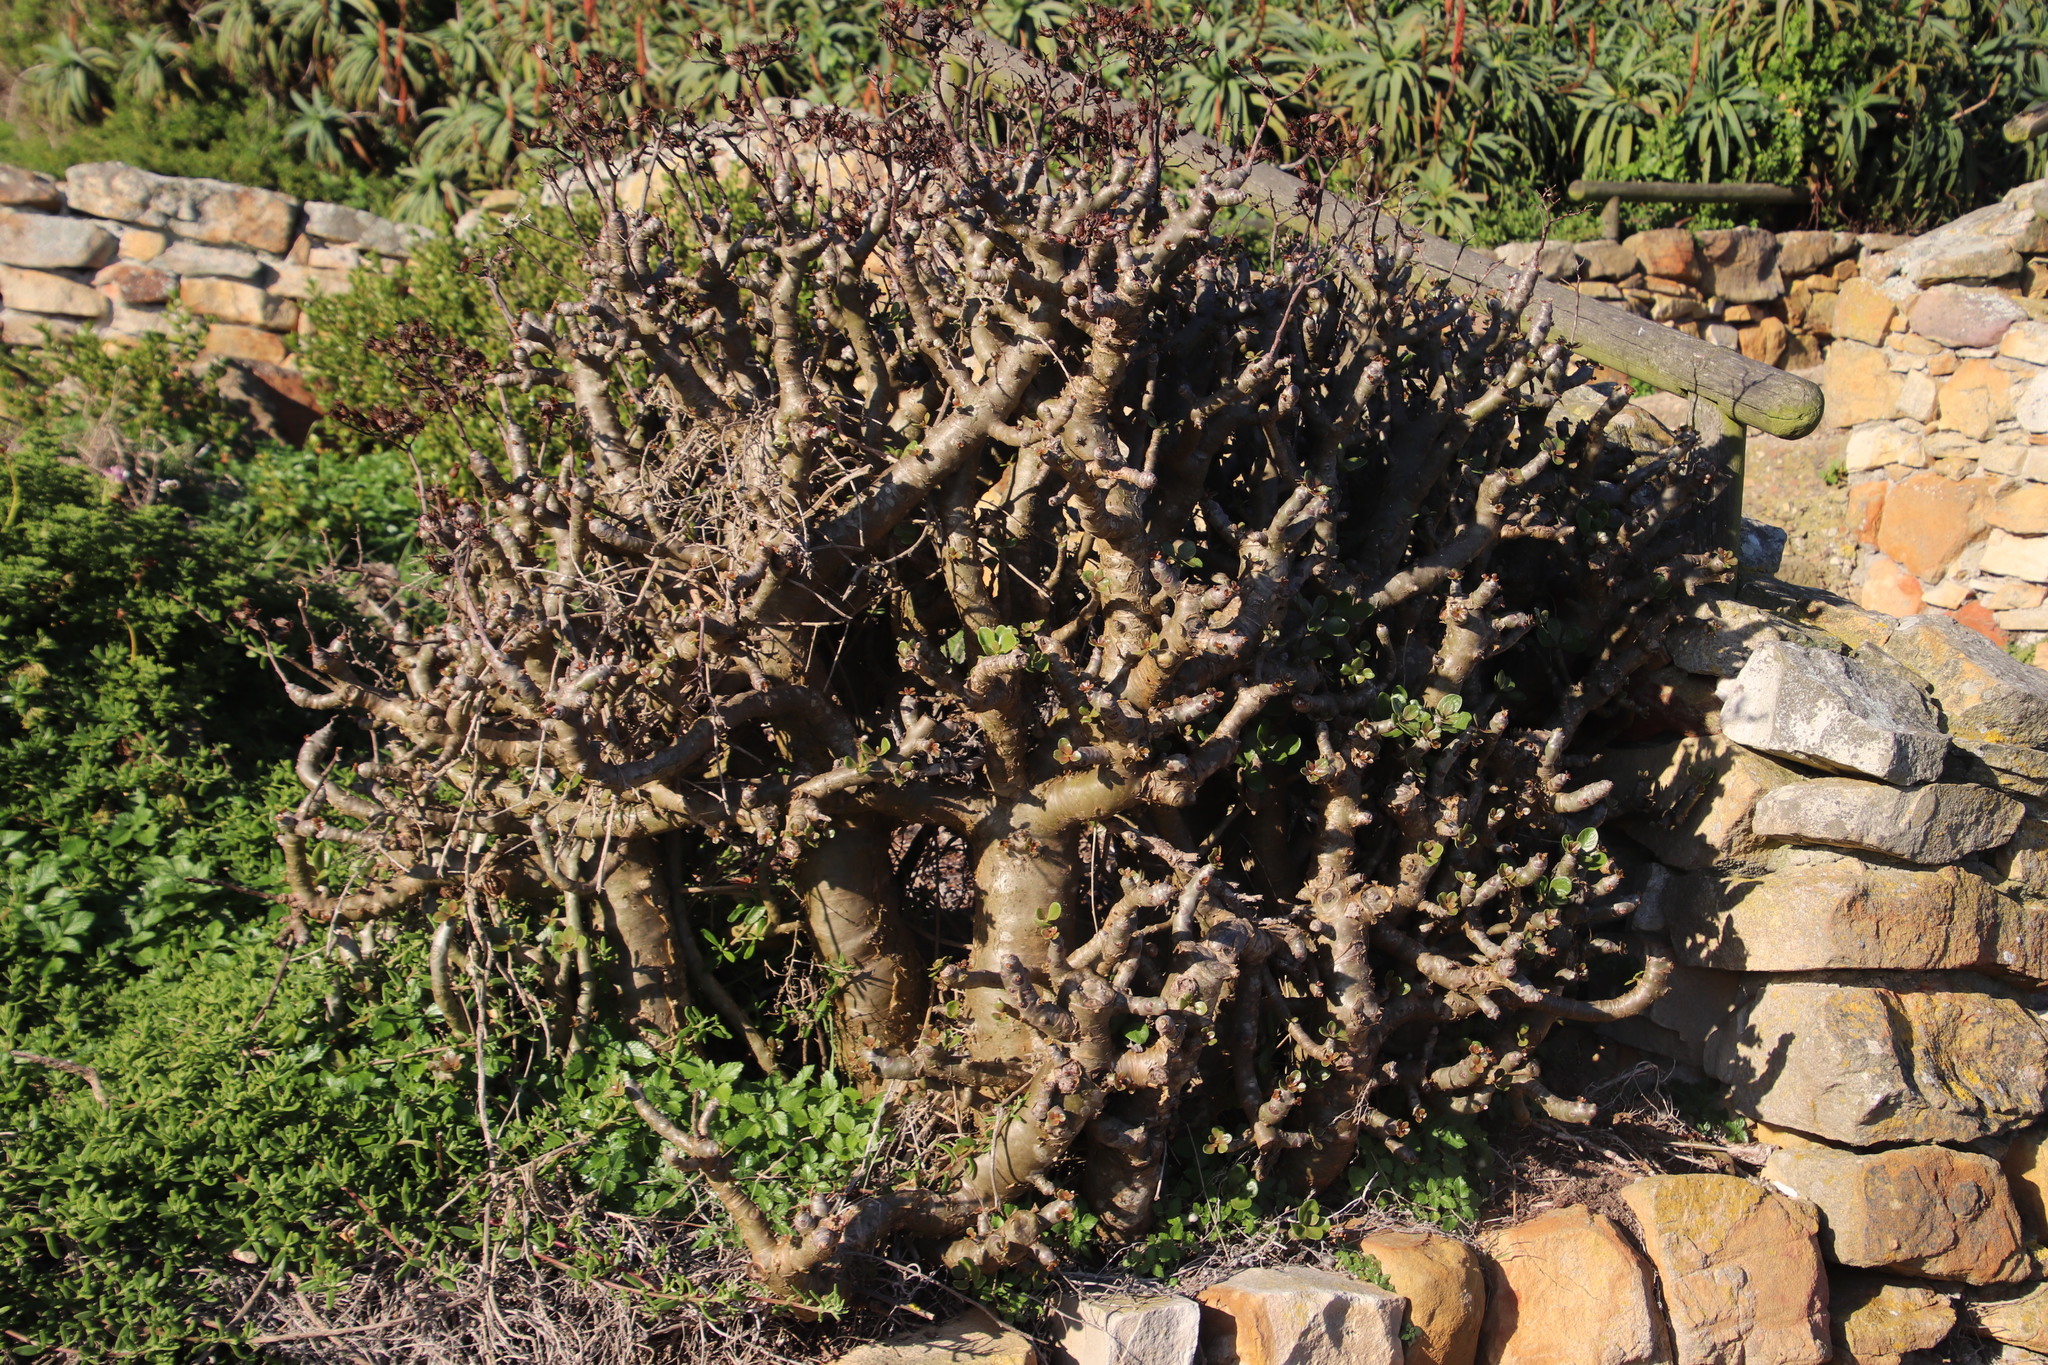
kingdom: Plantae
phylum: Tracheophyta
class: Magnoliopsida
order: Saxifragales
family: Crassulaceae
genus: Tylecodon
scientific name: Tylecodon paniculatus
